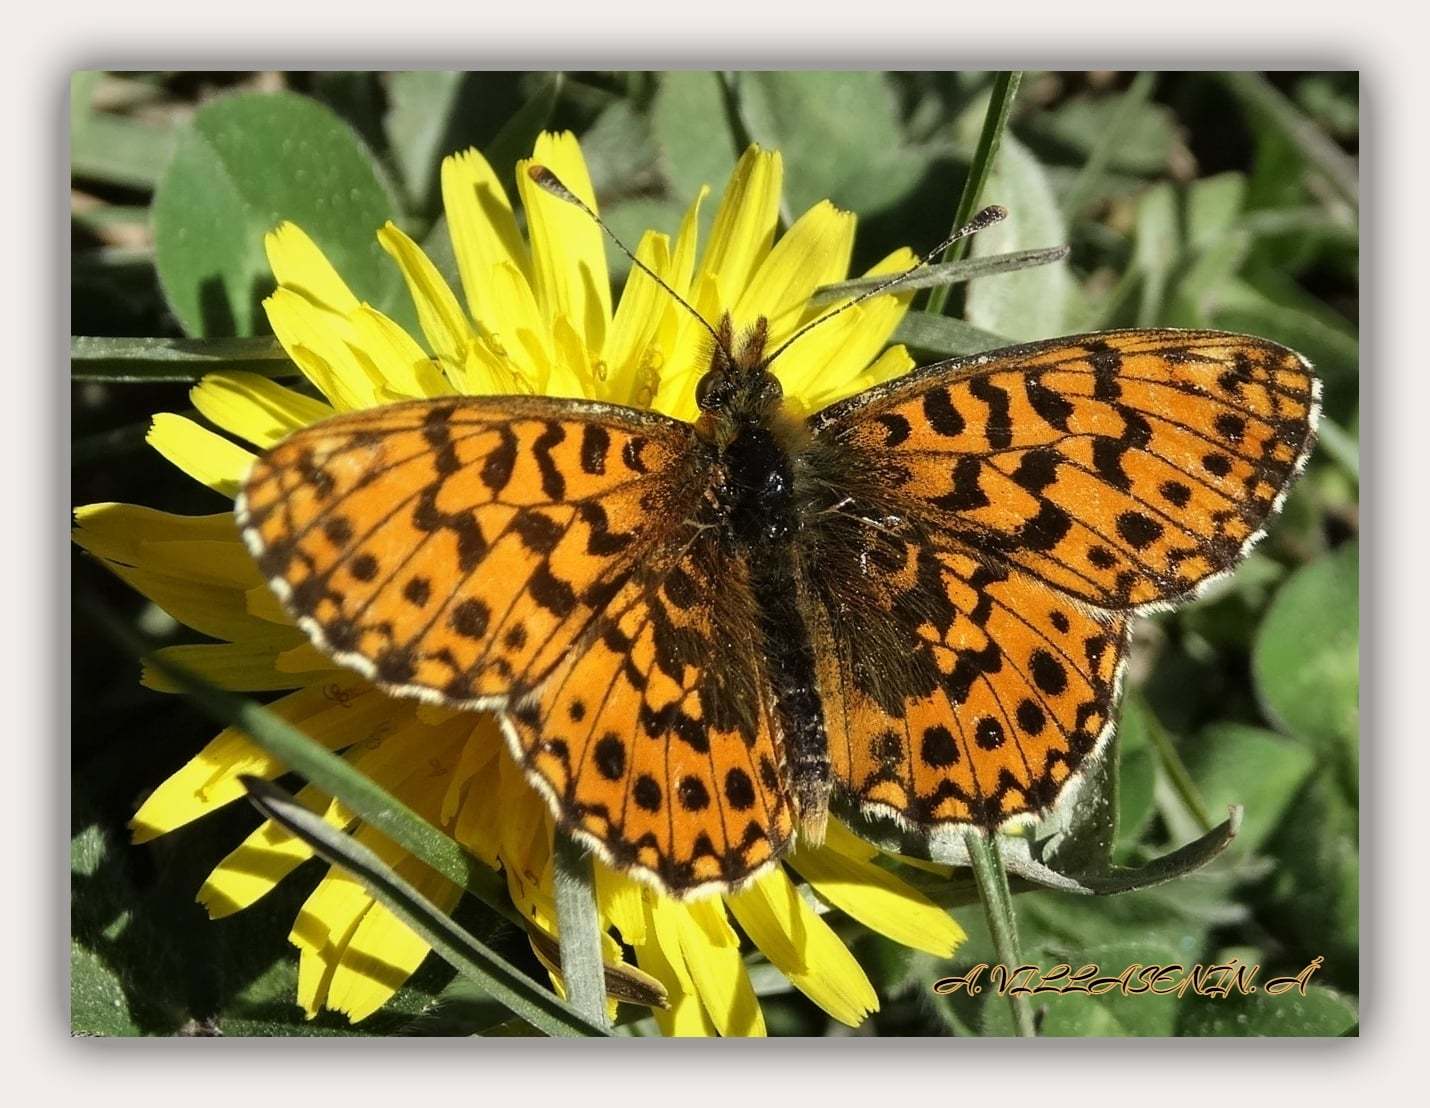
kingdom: Animalia
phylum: Arthropoda
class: Insecta
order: Lepidoptera
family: Nymphalidae
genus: Boloria
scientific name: Boloria dia
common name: Weaver's fritillary
